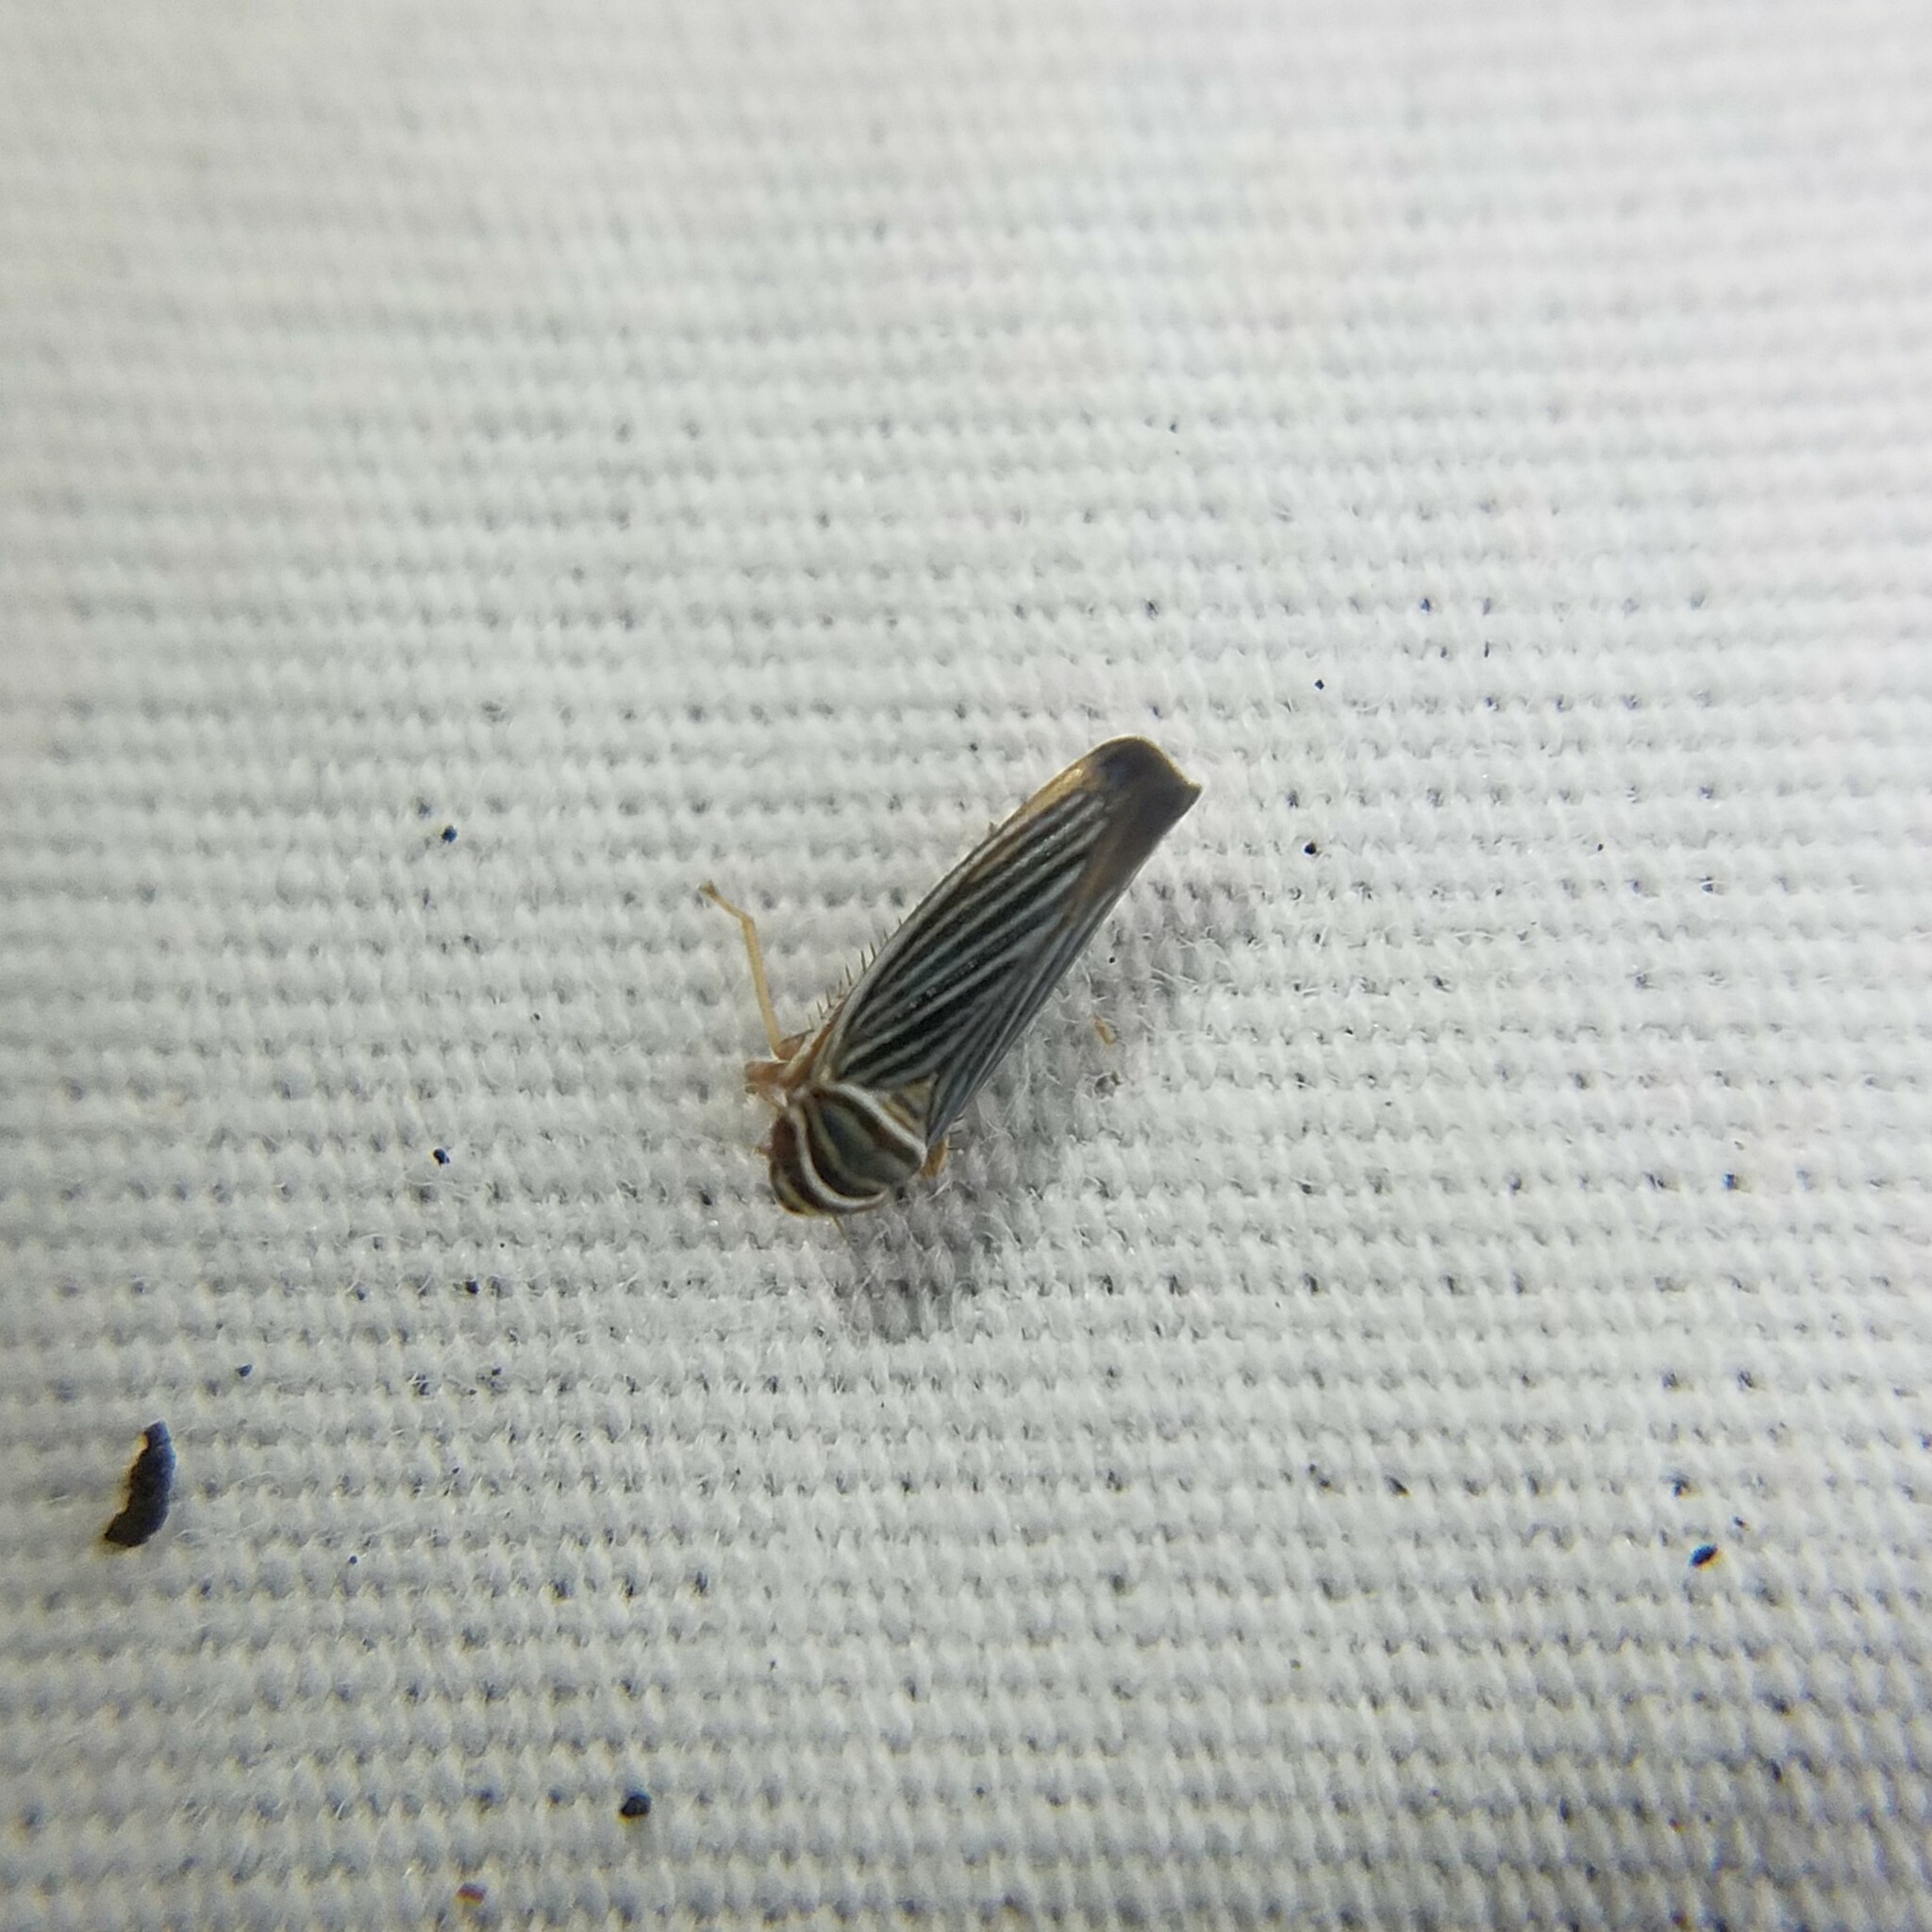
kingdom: Animalia
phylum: Arthropoda
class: Insecta
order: Hemiptera
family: Cicadellidae
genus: Tylozygus
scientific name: Tylozygus bifidus
